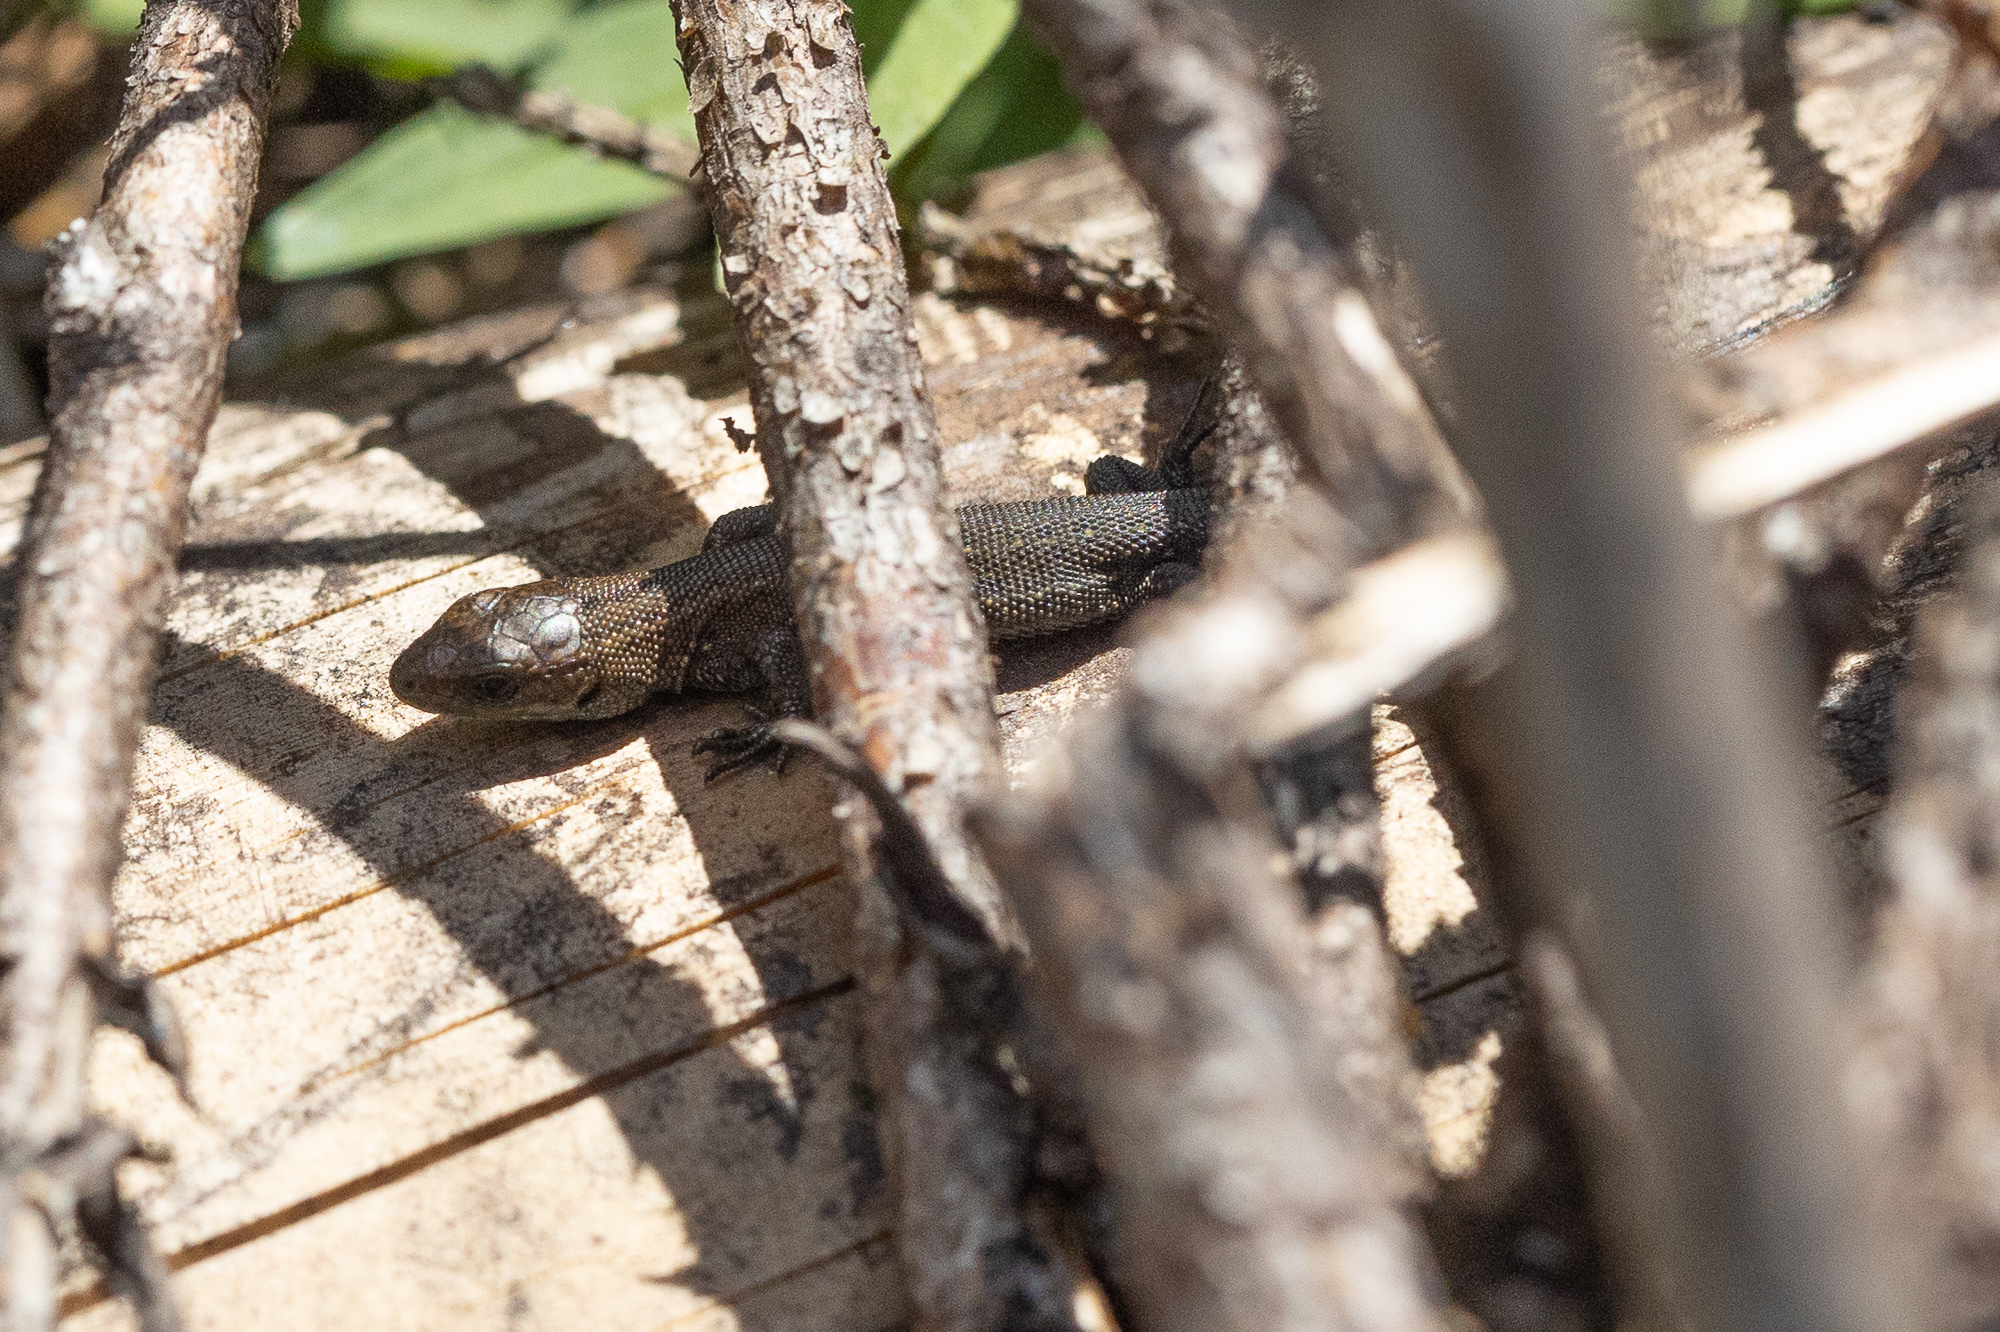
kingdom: Animalia
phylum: Chordata
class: Squamata
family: Lacertidae
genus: Zootoca
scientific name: Zootoca vivipara
